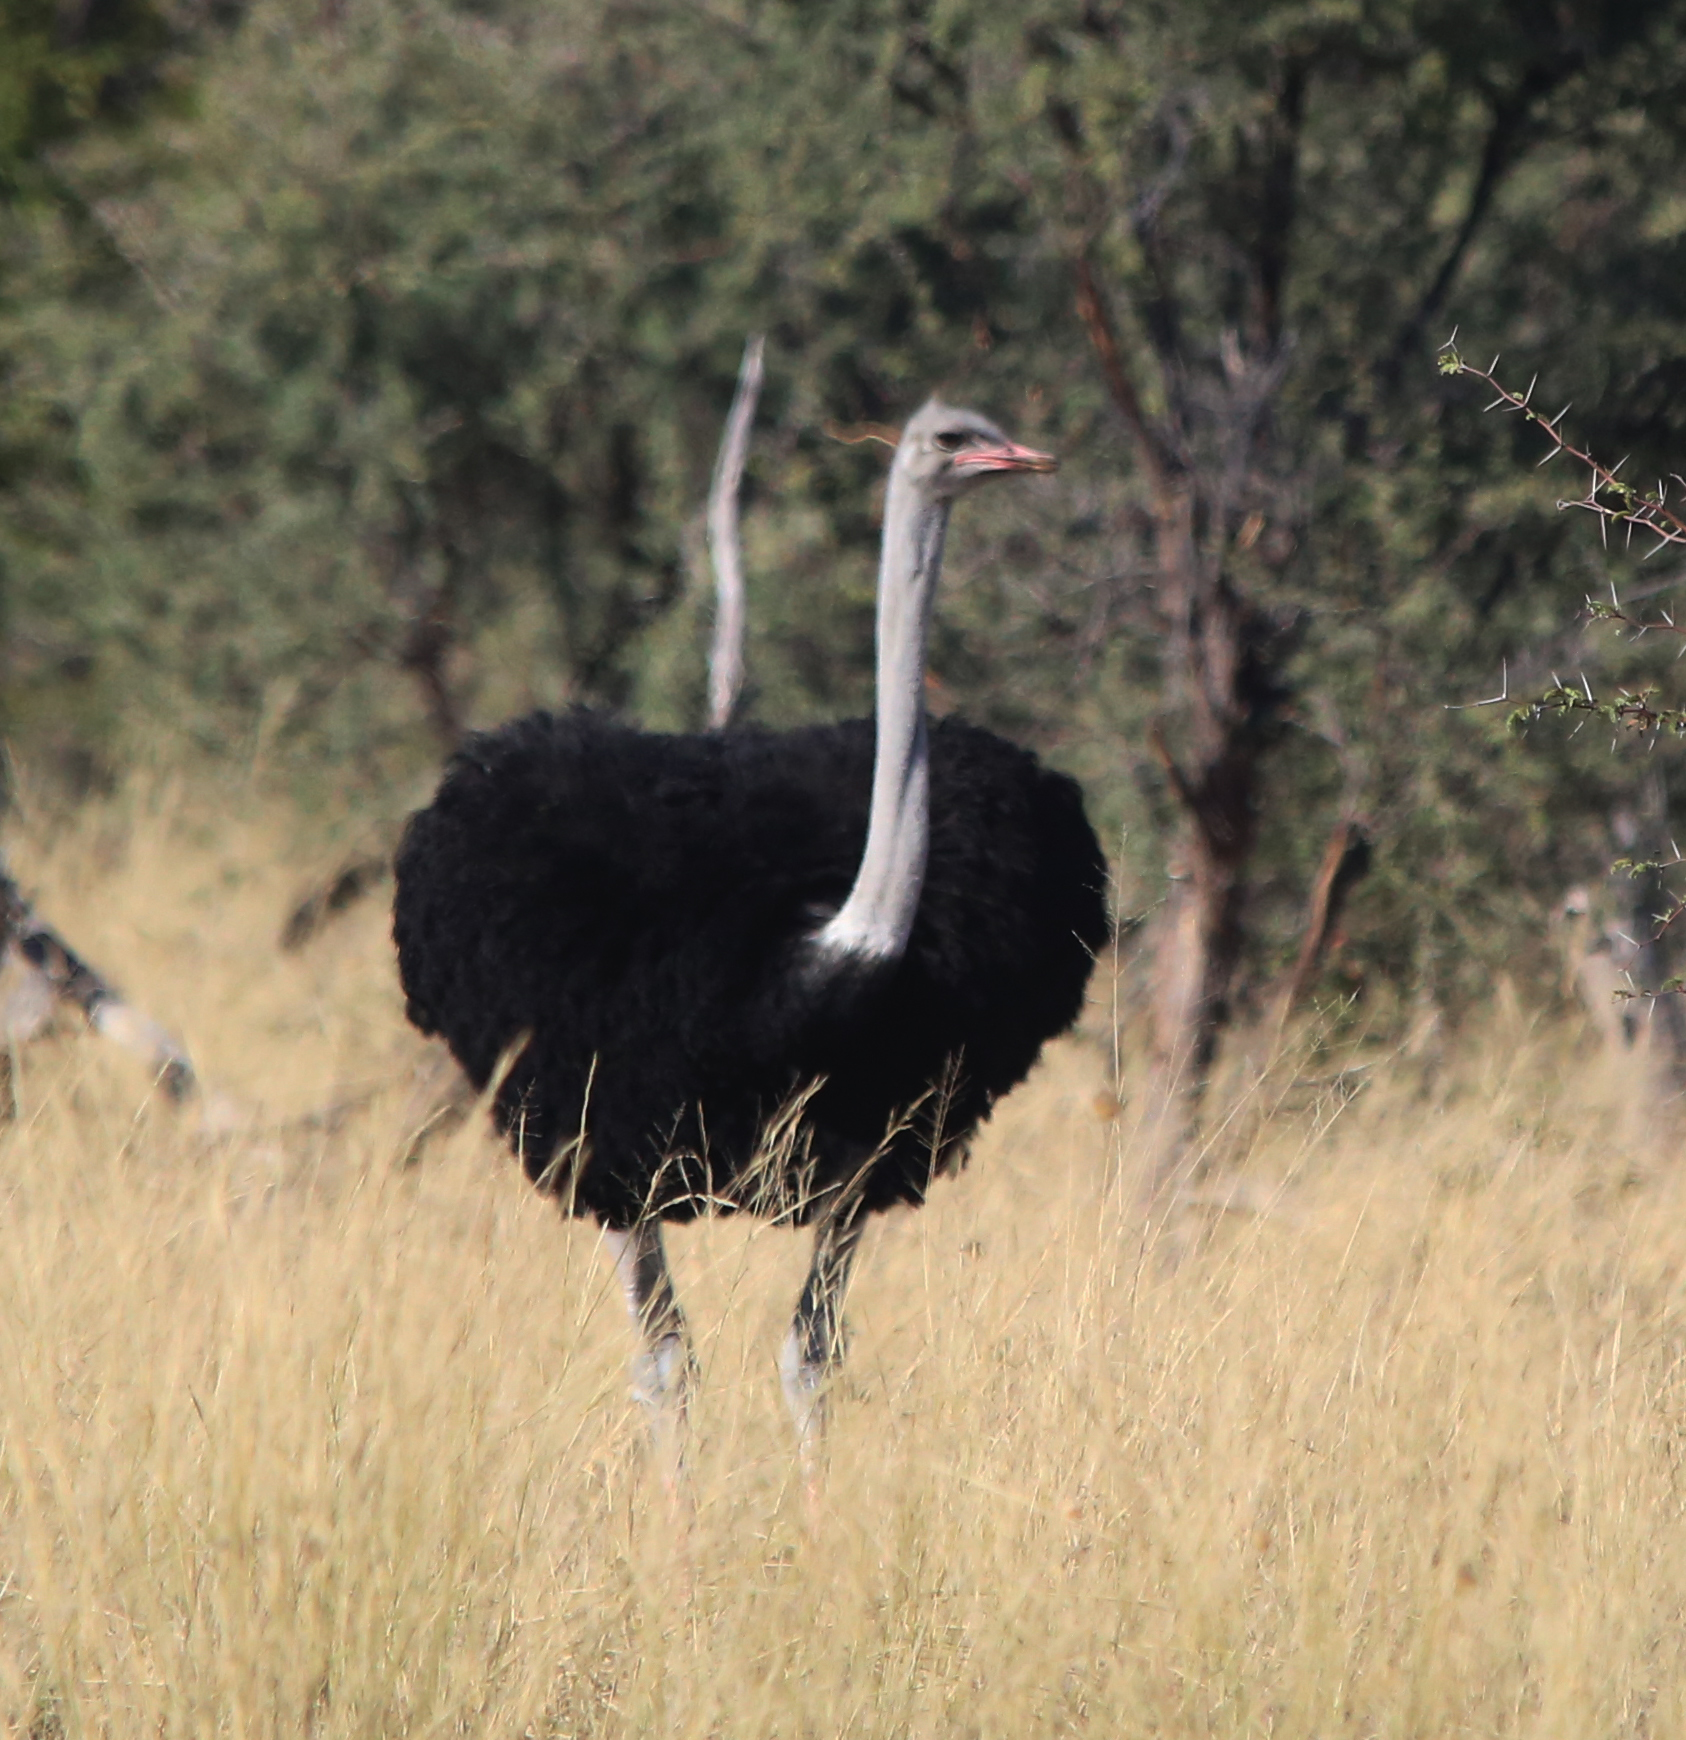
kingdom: Animalia
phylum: Chordata
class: Aves
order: Struthioniformes
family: Struthionidae
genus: Struthio
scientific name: Struthio camelus
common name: Common ostrich
